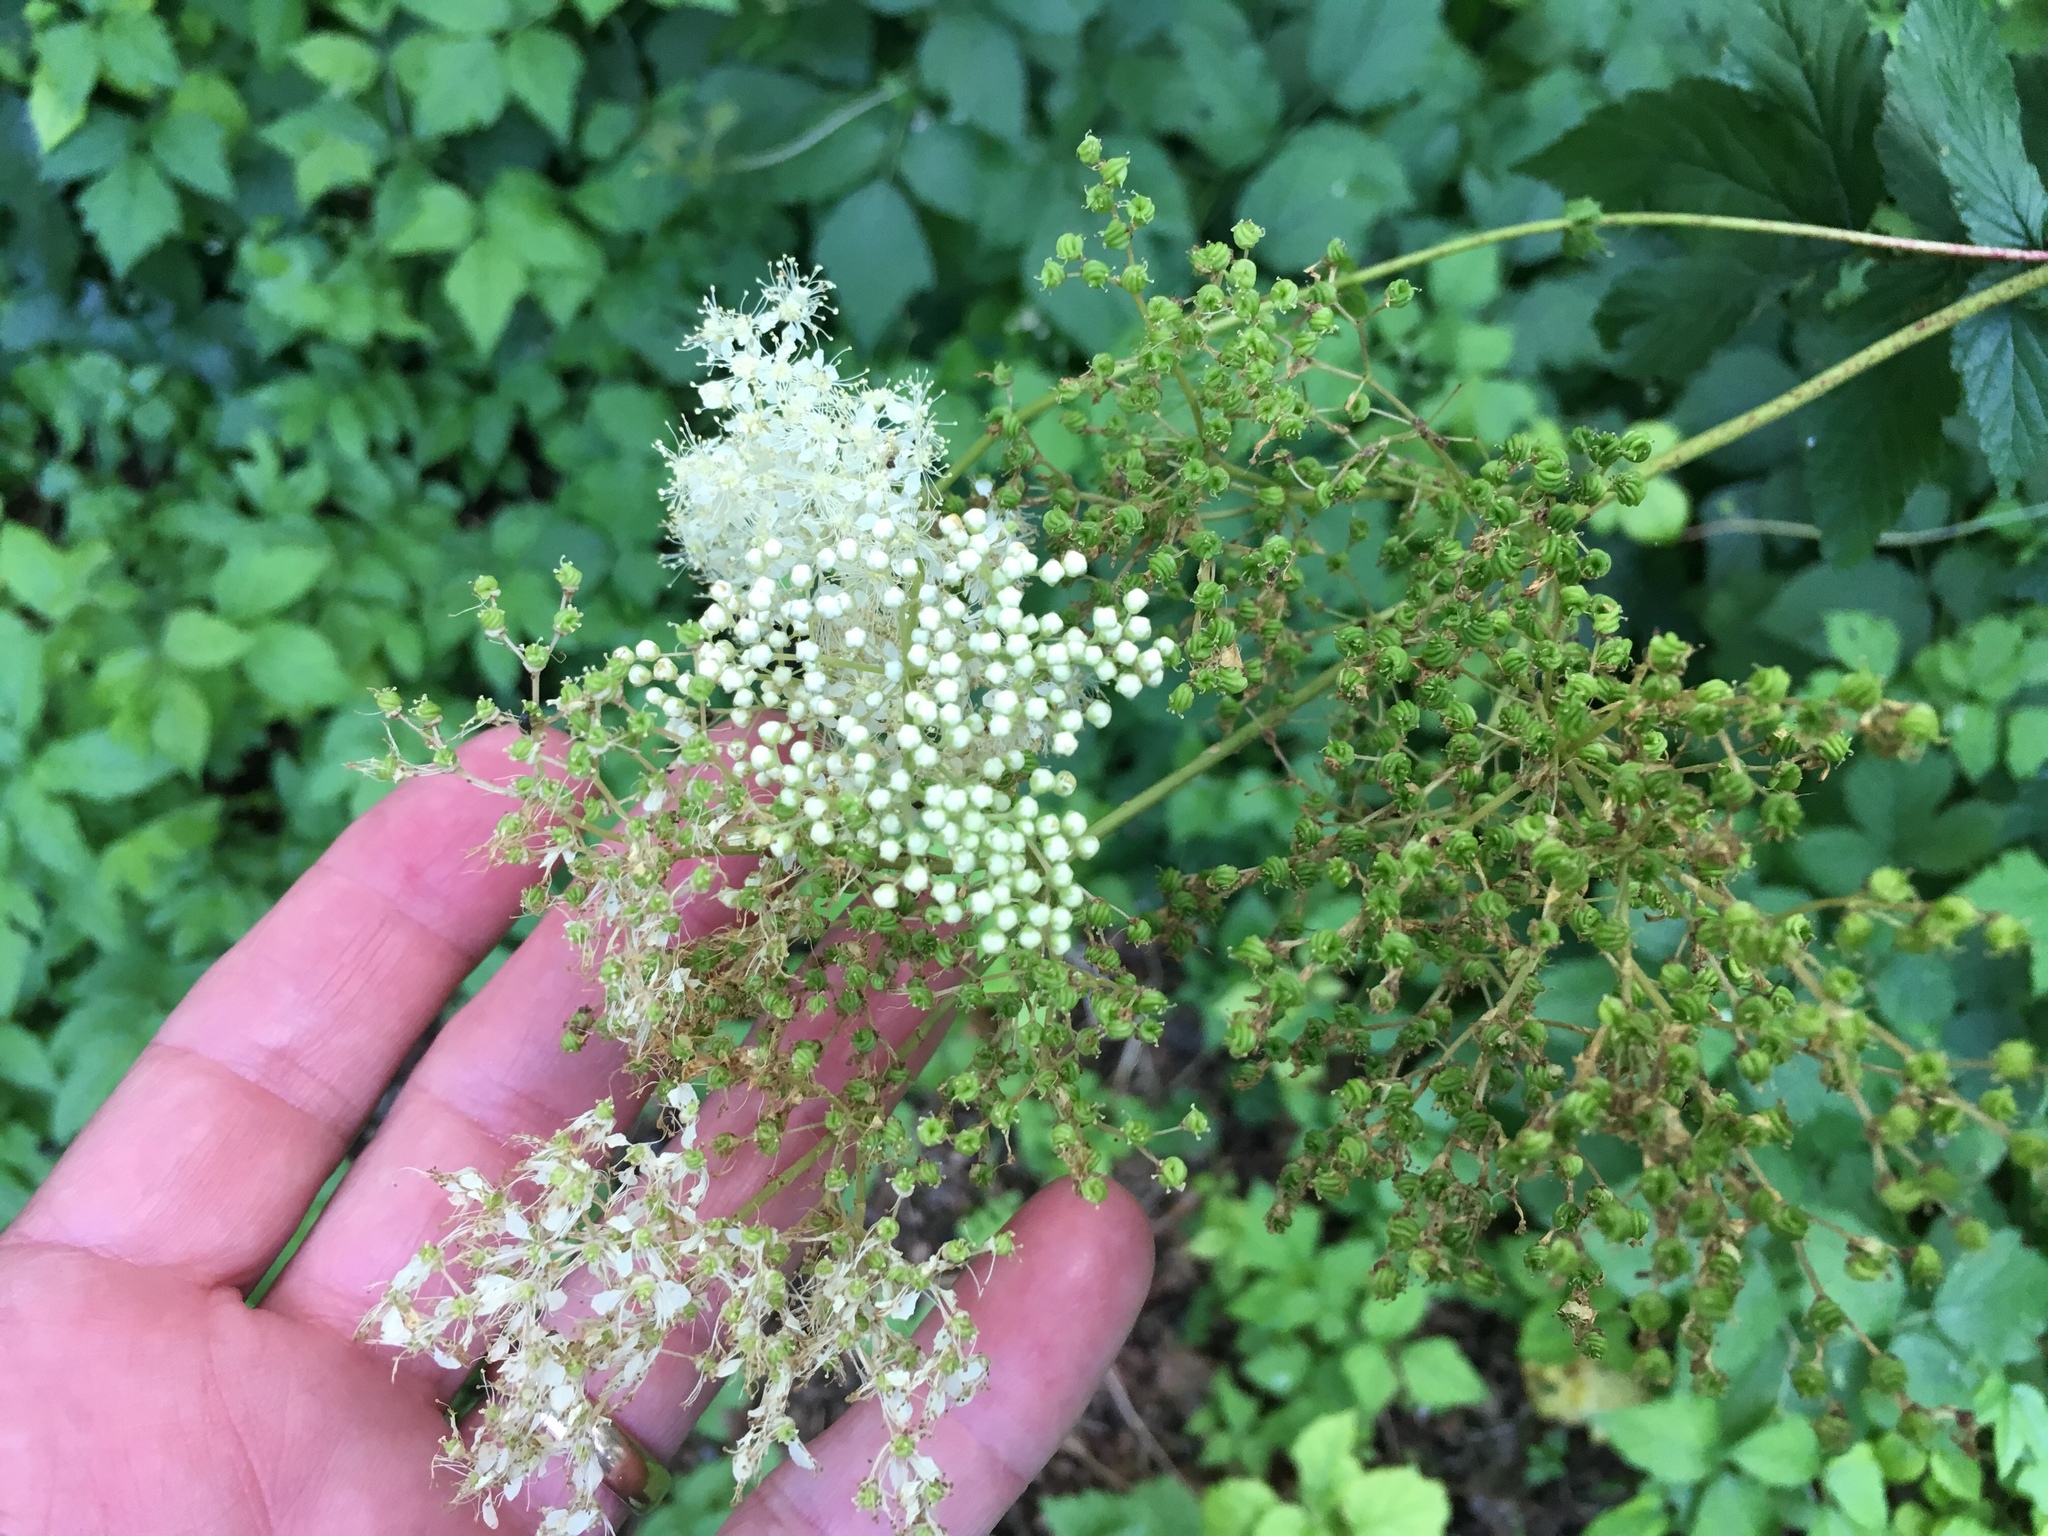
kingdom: Plantae
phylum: Tracheophyta
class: Magnoliopsida
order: Rosales
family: Rosaceae
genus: Filipendula
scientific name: Filipendula ulmaria
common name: Meadowsweet
